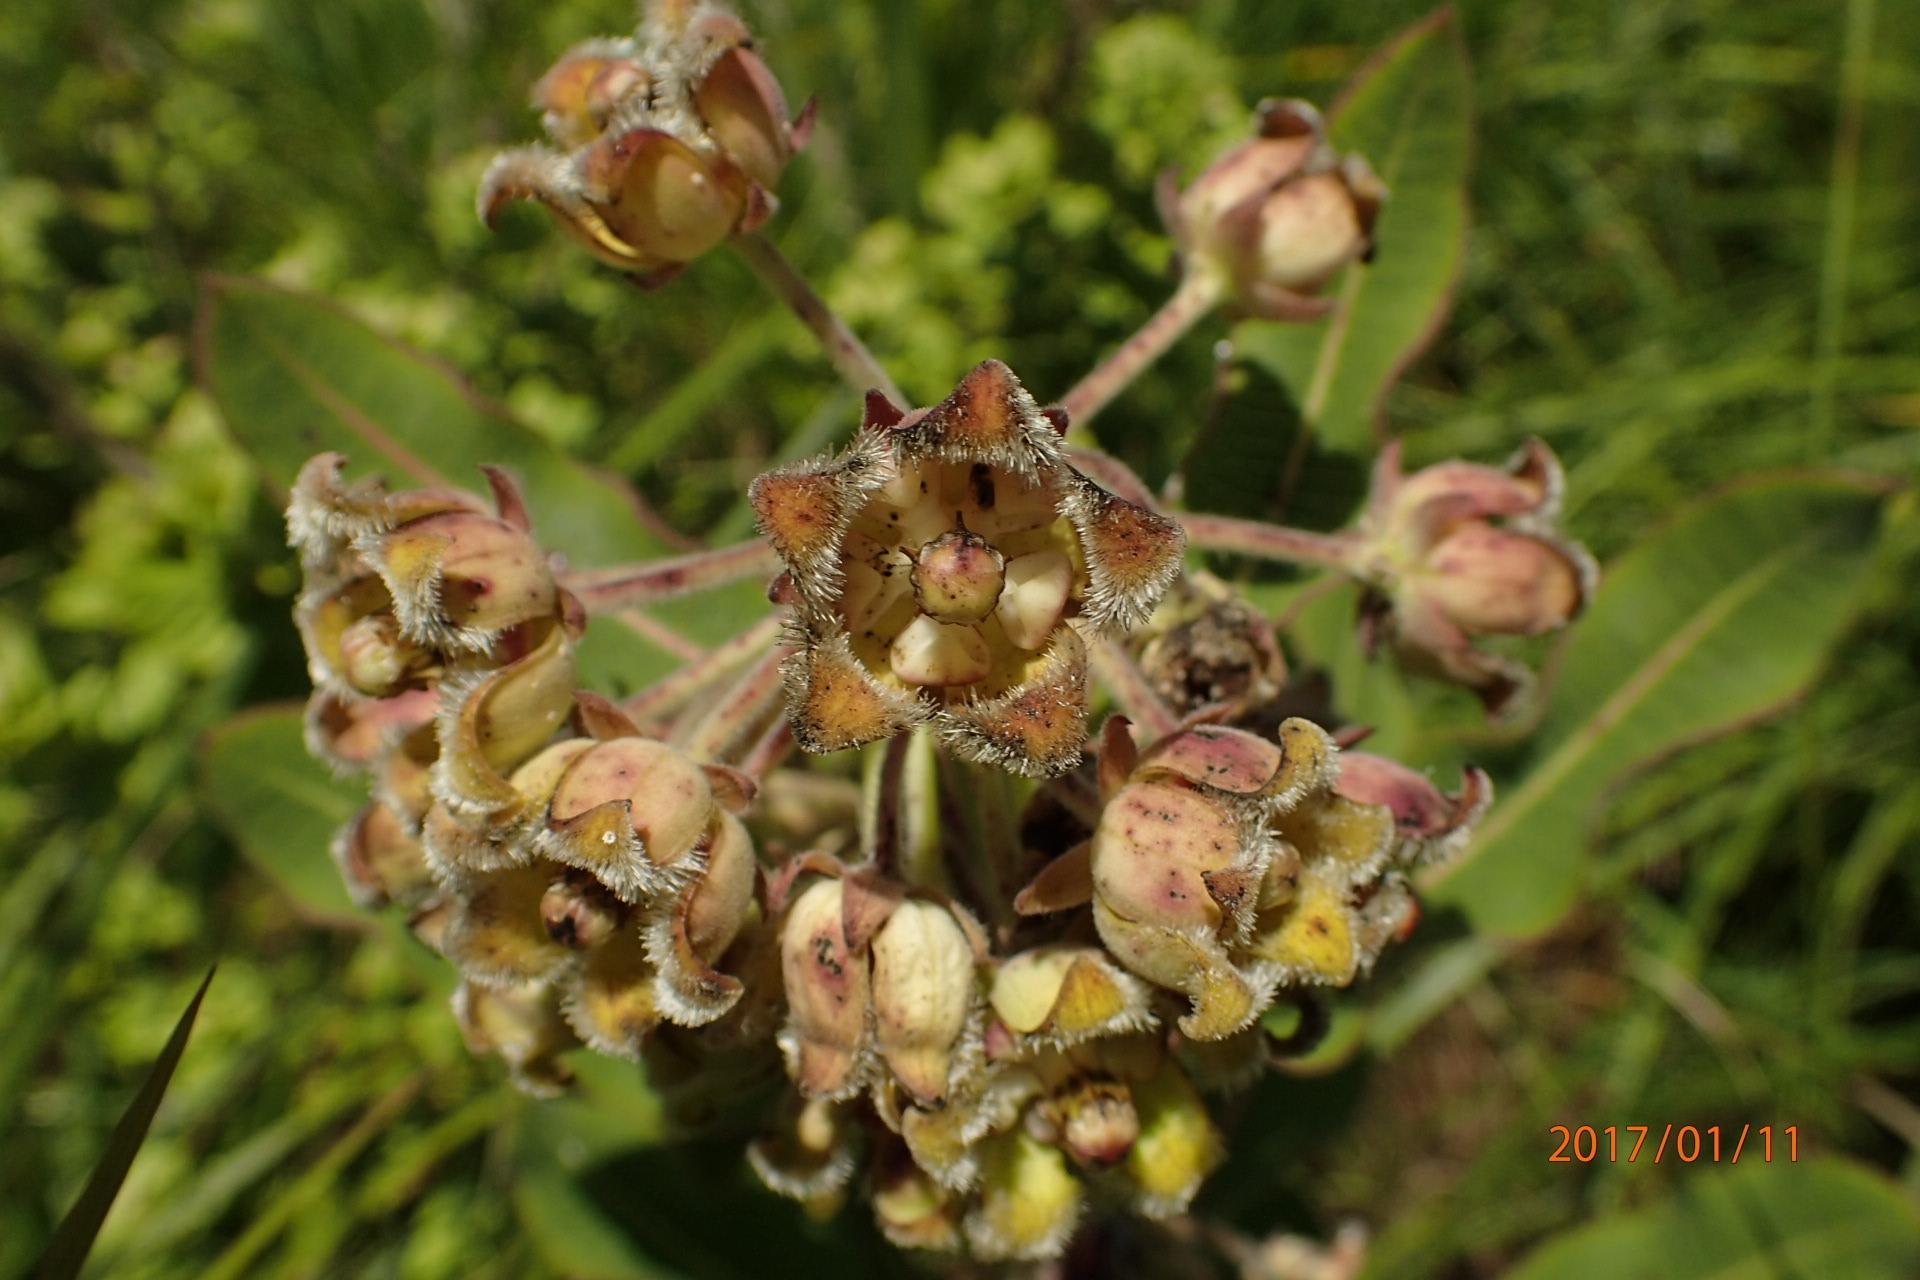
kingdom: Plantae
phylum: Tracheophyta
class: Magnoliopsida
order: Gentianales
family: Apocynaceae
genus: Xysmalobium
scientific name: Xysmalobium undulatum
